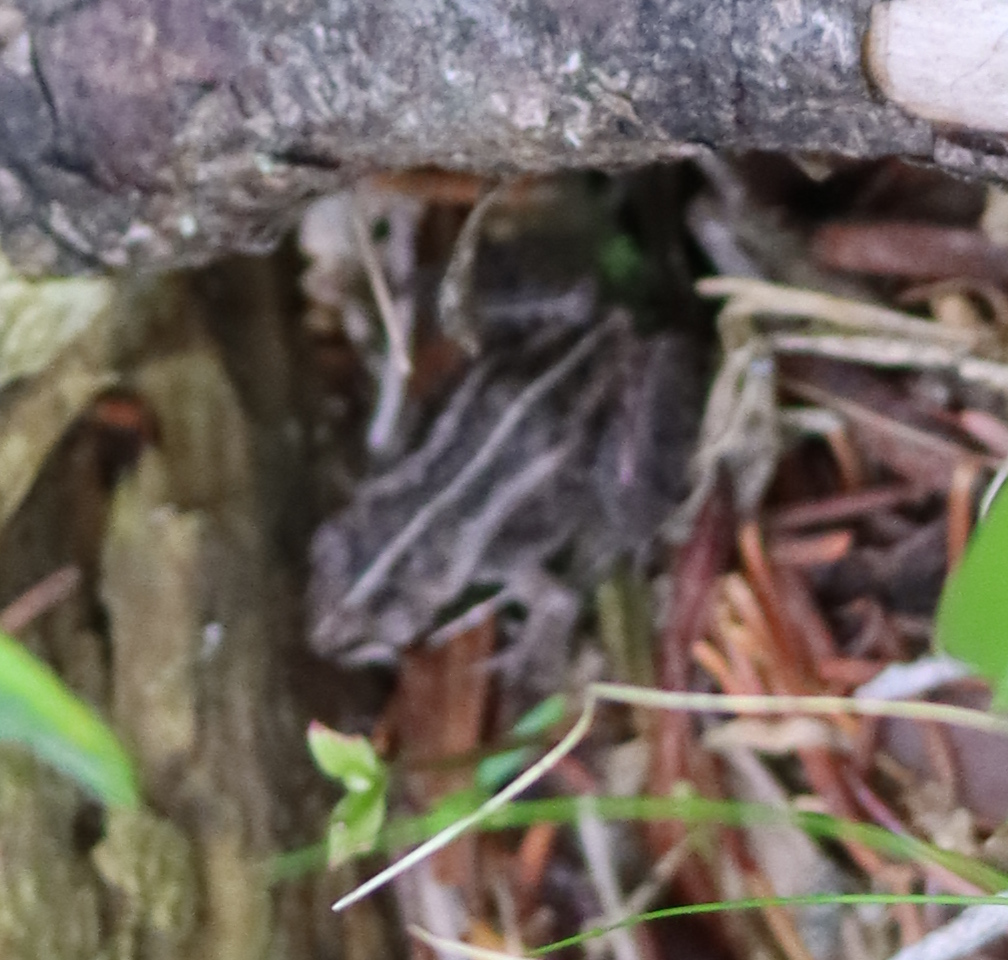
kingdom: Animalia
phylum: Chordata
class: Amphibia
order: Anura
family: Ranidae
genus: Lithobates
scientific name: Lithobates sylvaticus
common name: Wood frog
